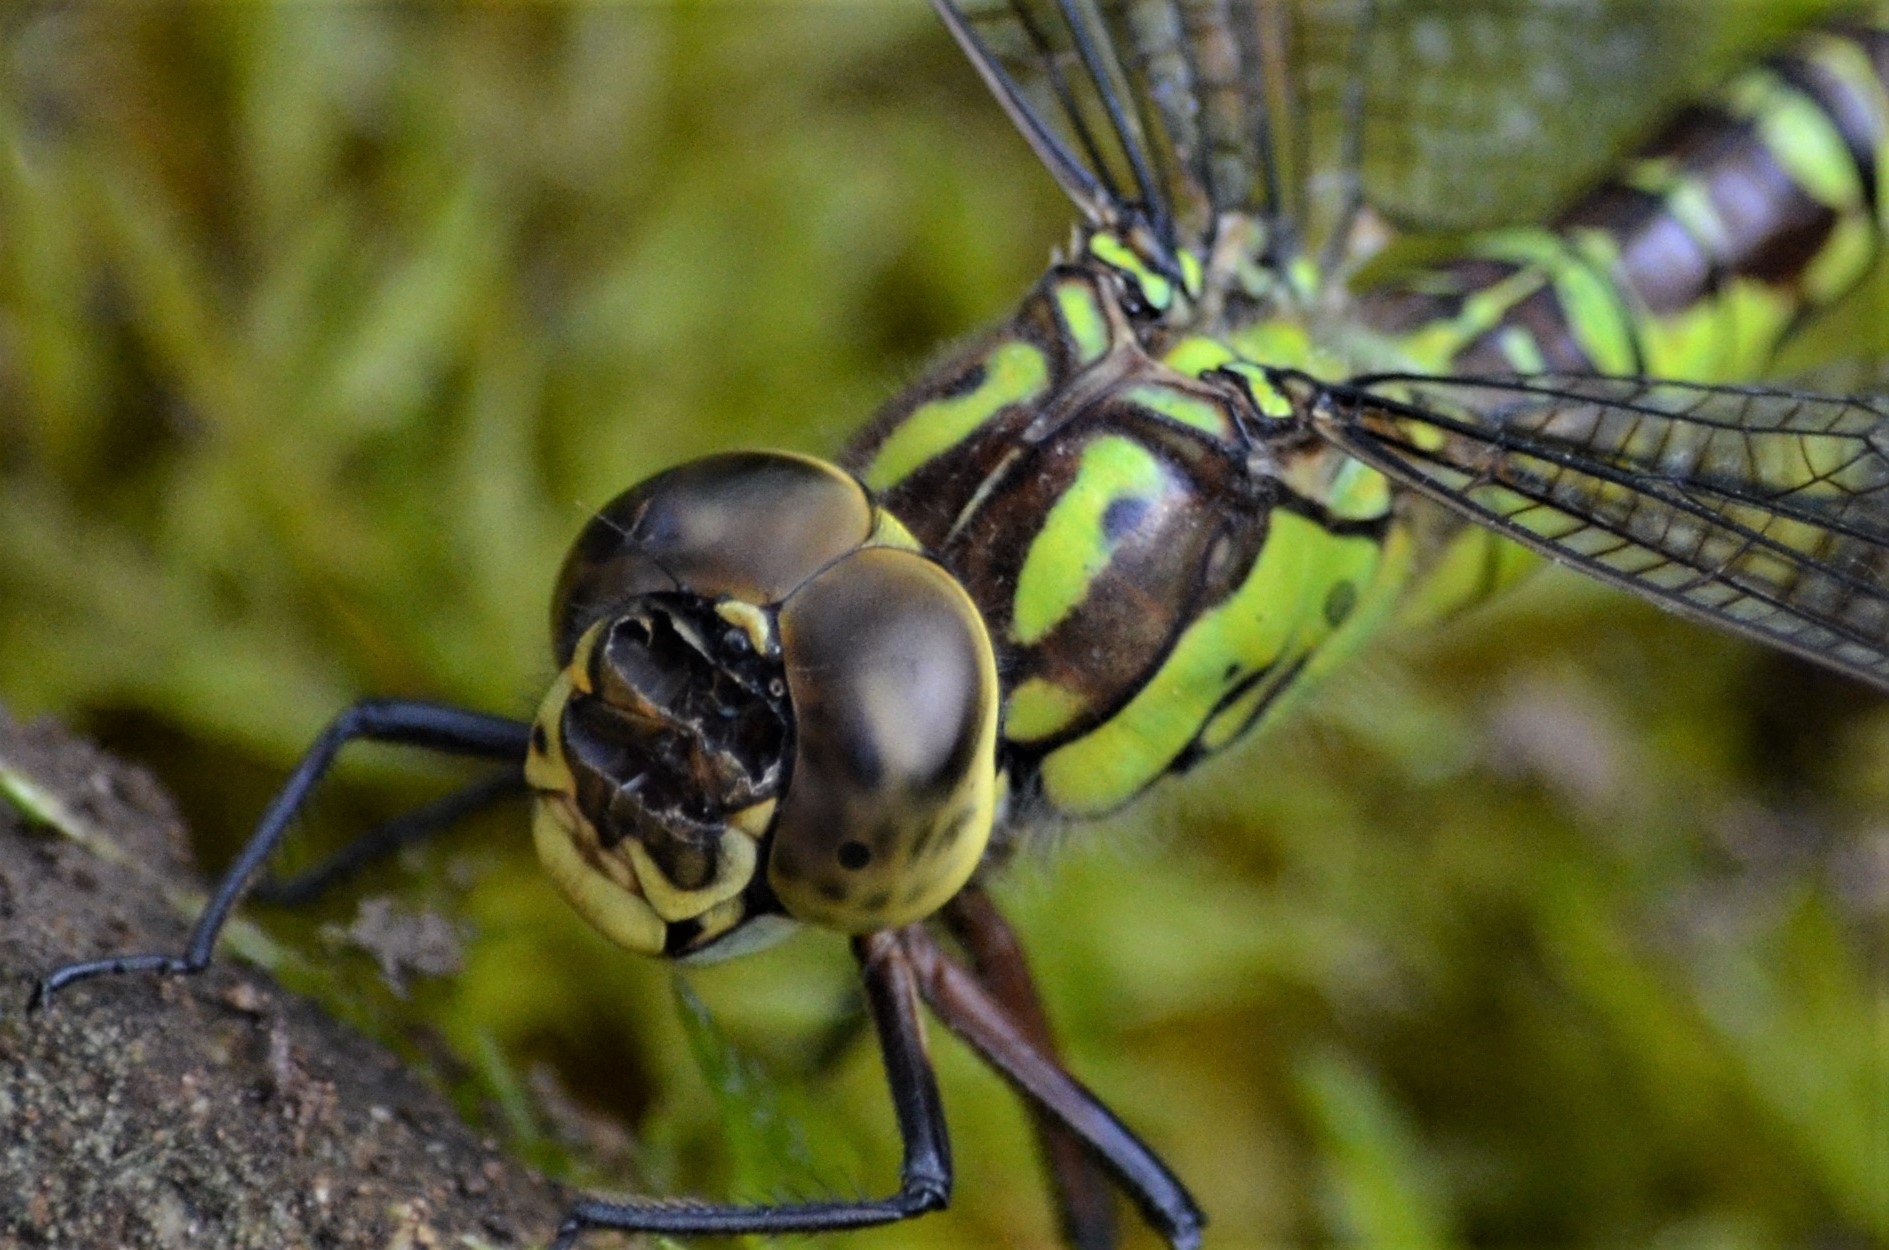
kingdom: Animalia
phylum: Arthropoda
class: Insecta
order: Odonata
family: Aeshnidae
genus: Aeshna
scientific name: Aeshna cyanea
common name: Southern hawker
